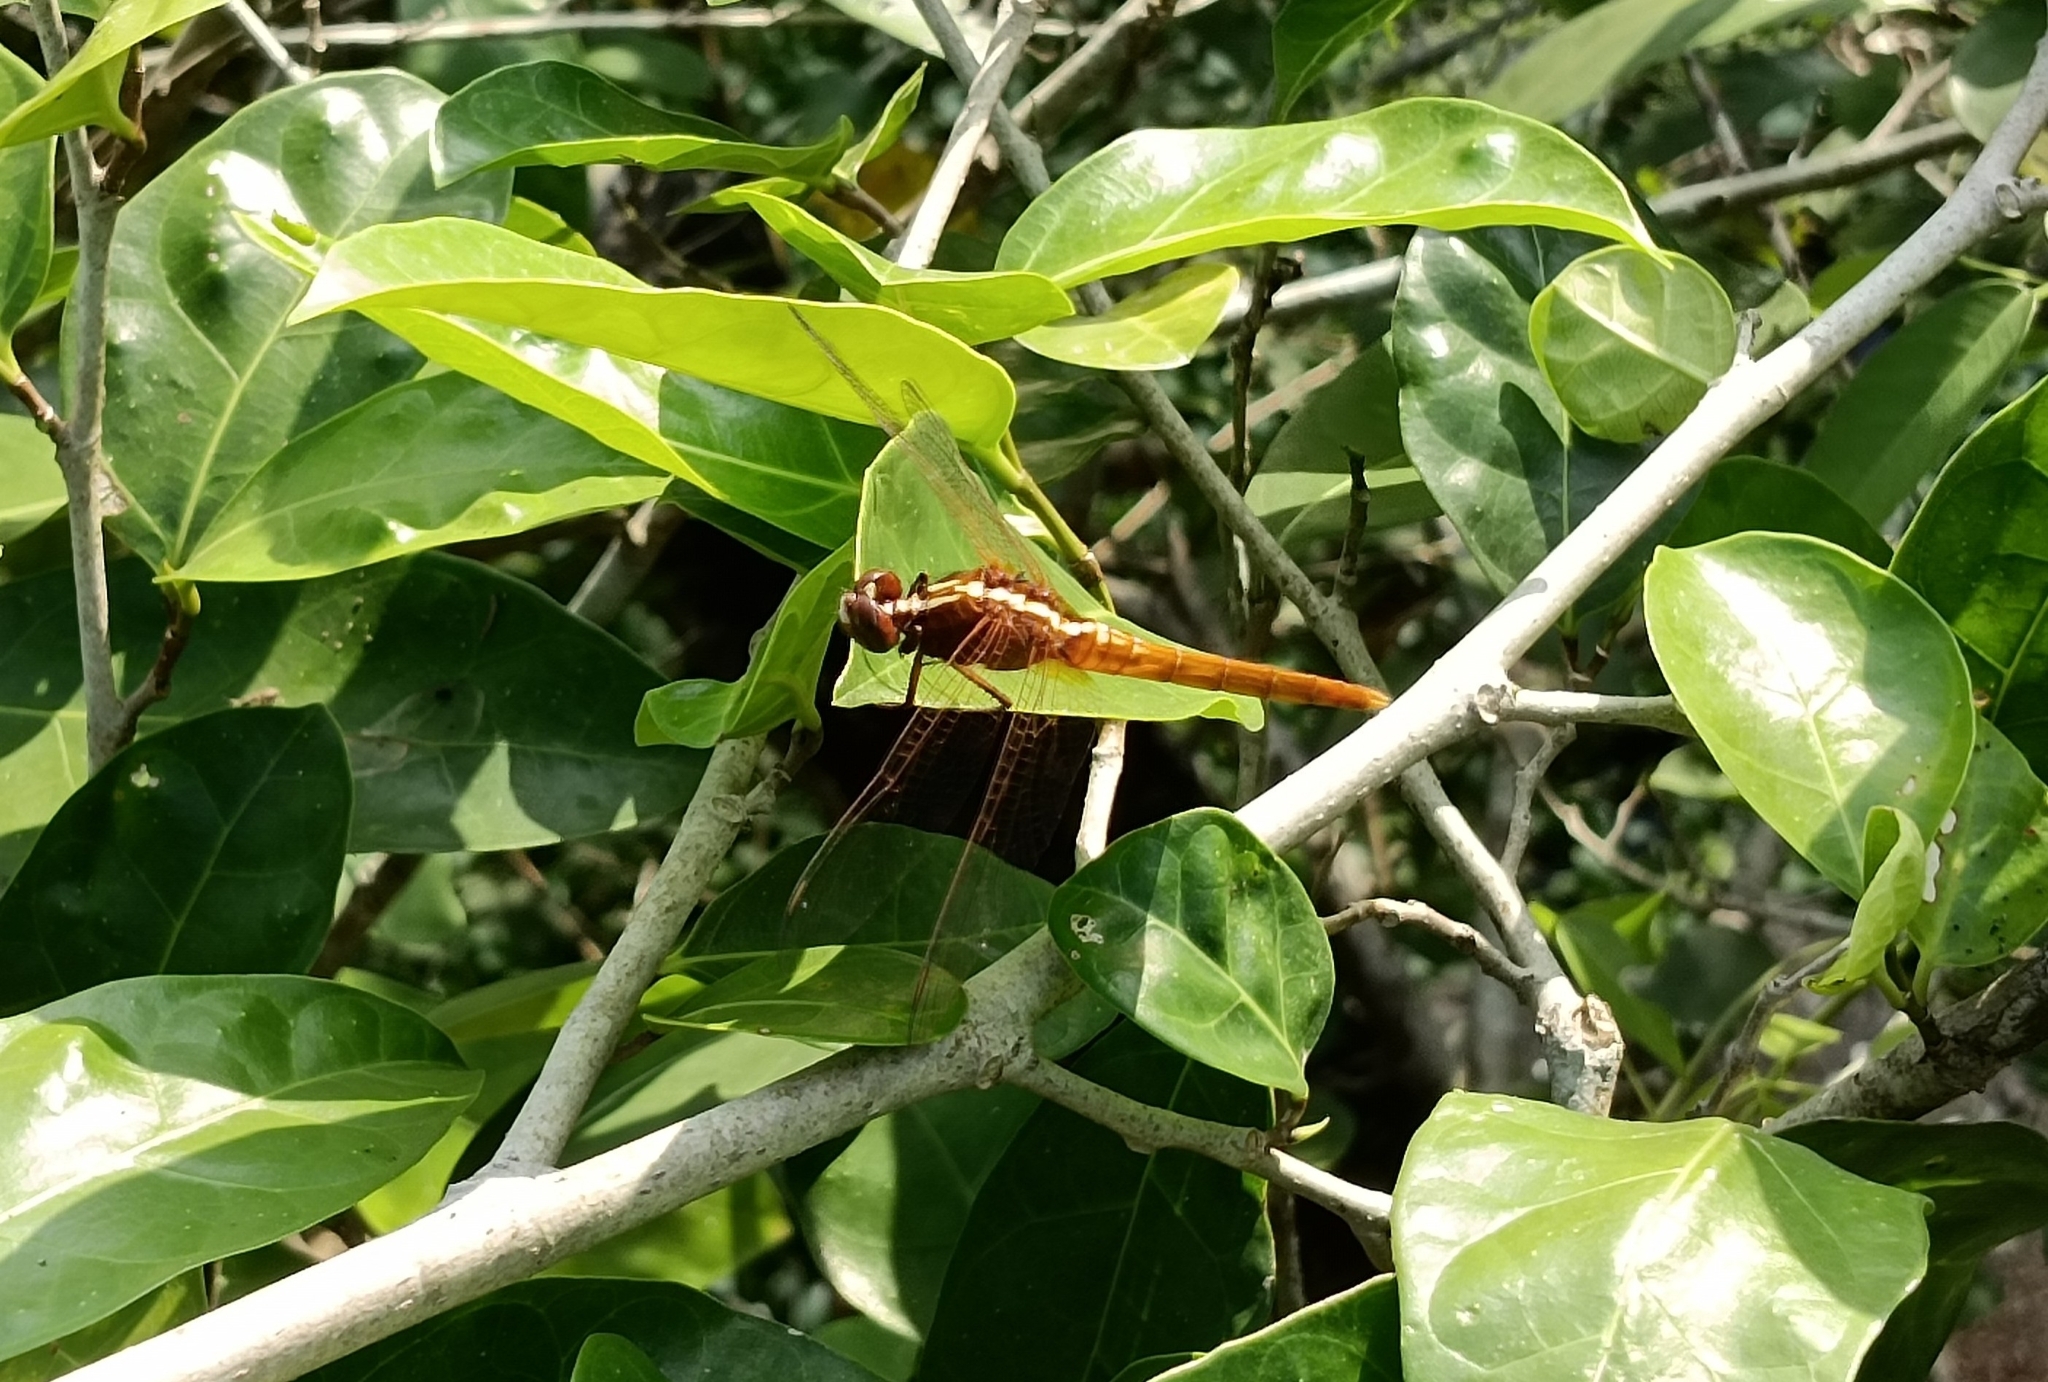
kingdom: Animalia
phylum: Arthropoda
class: Insecta
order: Odonata
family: Libellulidae
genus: Rhodothemis
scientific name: Rhodothemis rufa
